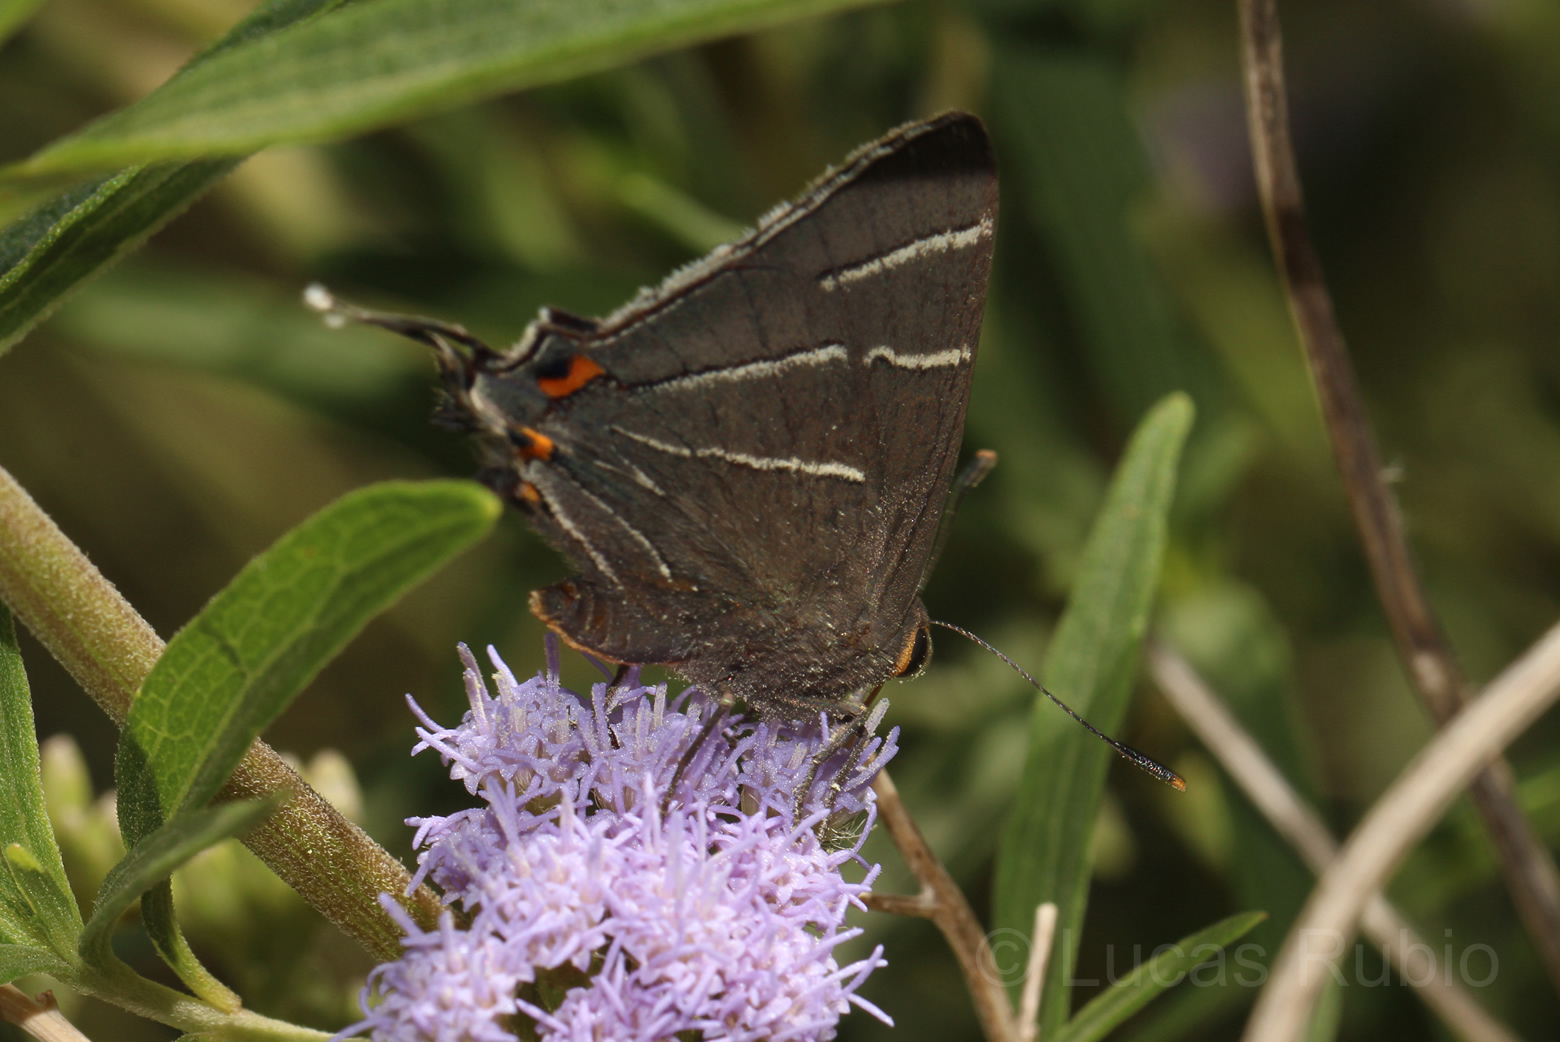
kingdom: Animalia
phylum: Arthropoda
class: Insecta
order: Lepidoptera
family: Lycaenidae
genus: Atlides
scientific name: Atlides
